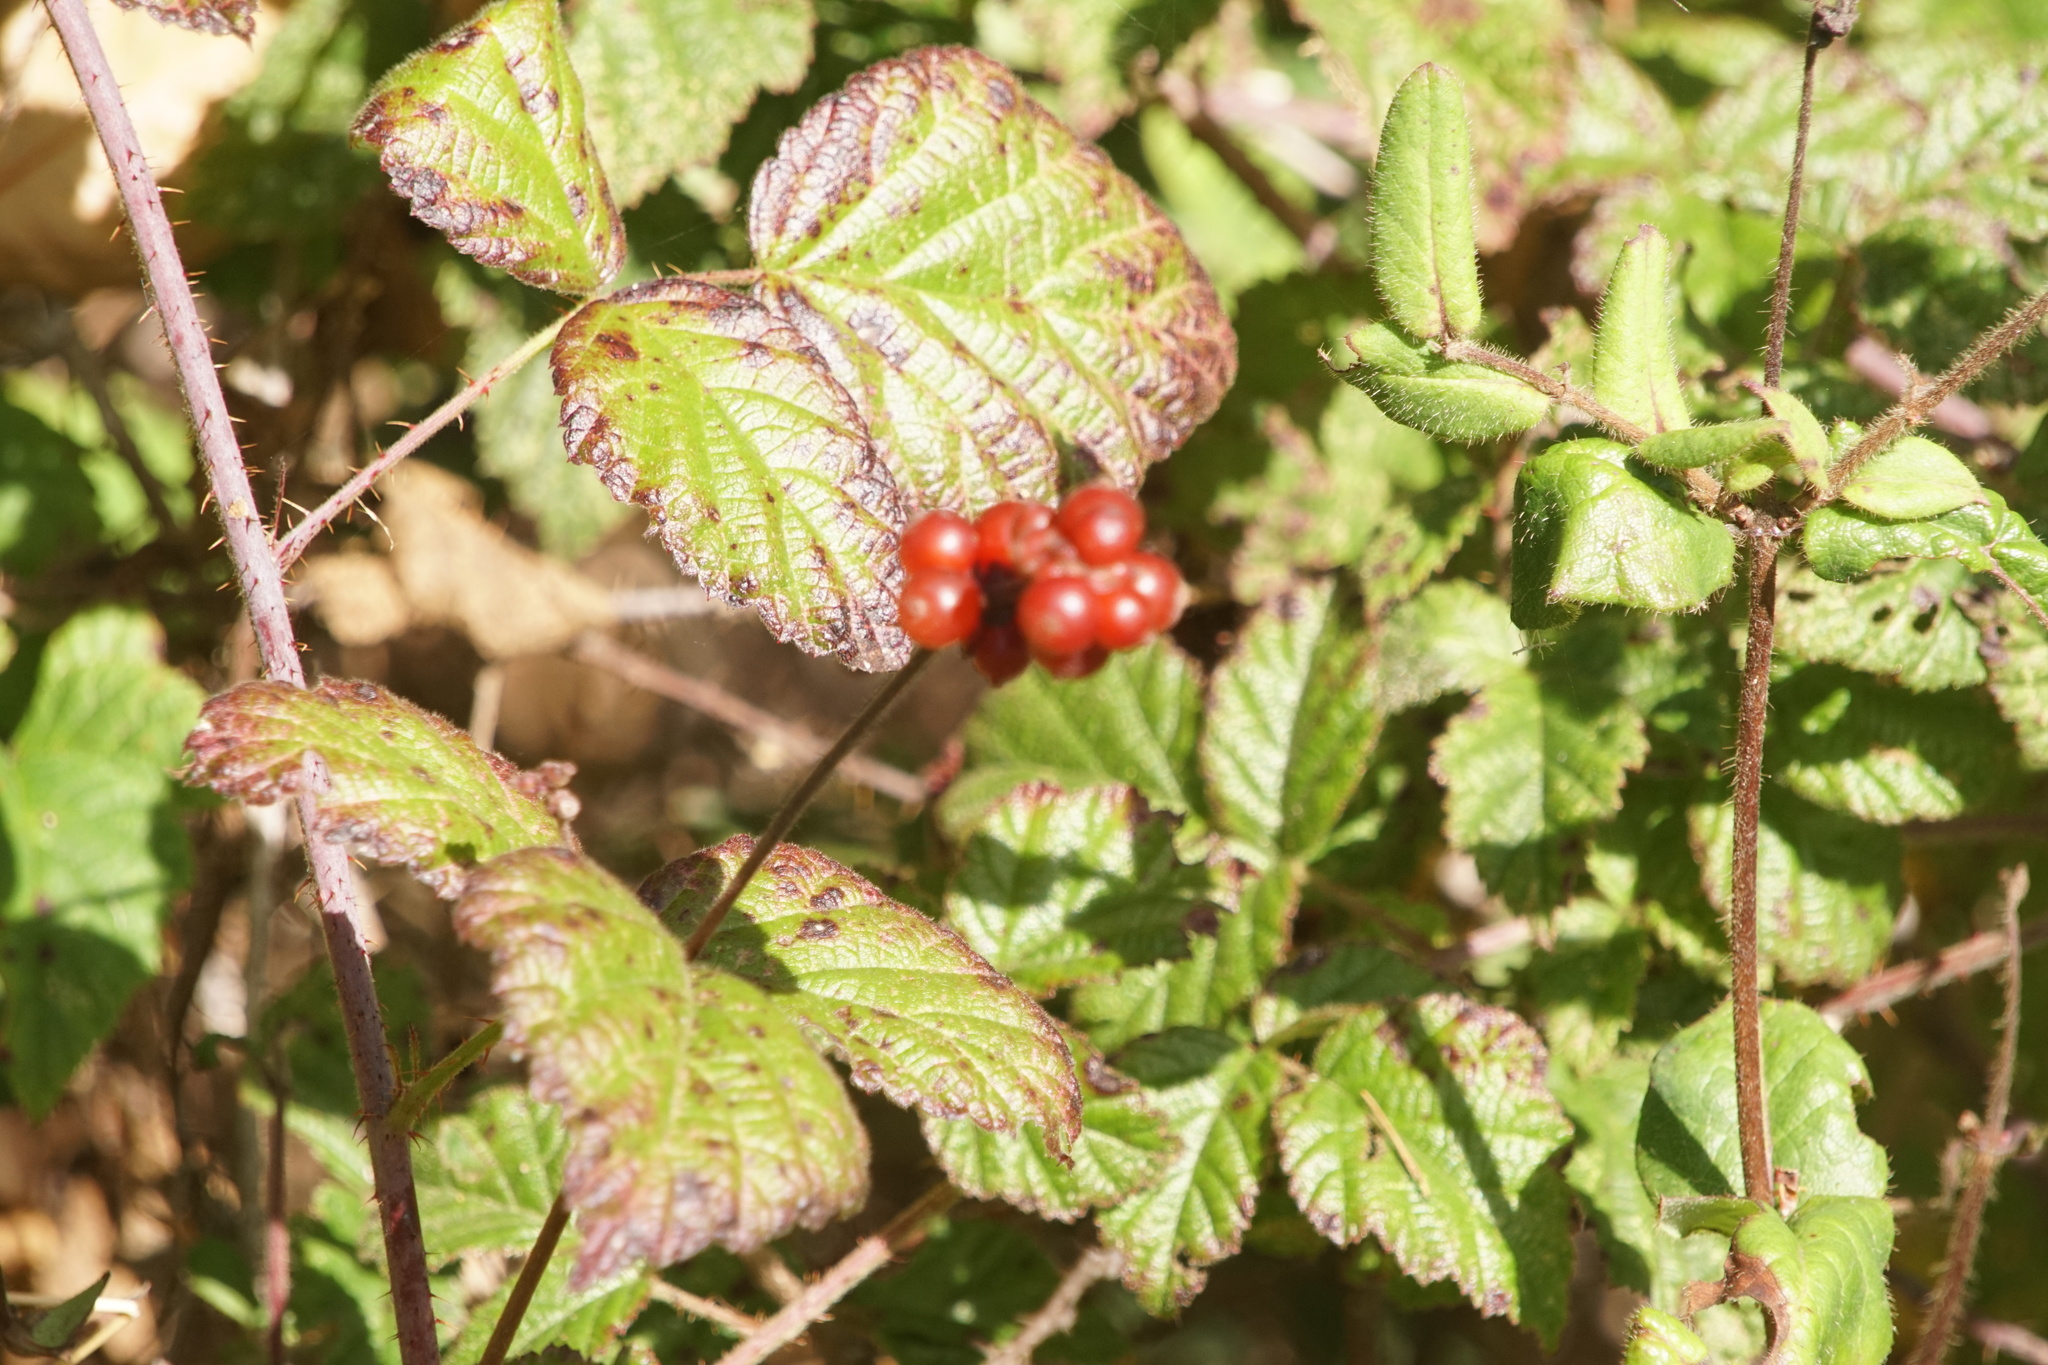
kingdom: Plantae
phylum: Tracheophyta
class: Magnoliopsida
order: Rosales
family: Rosaceae
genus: Rubus
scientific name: Rubus ursinus
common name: Pacific blackberry
